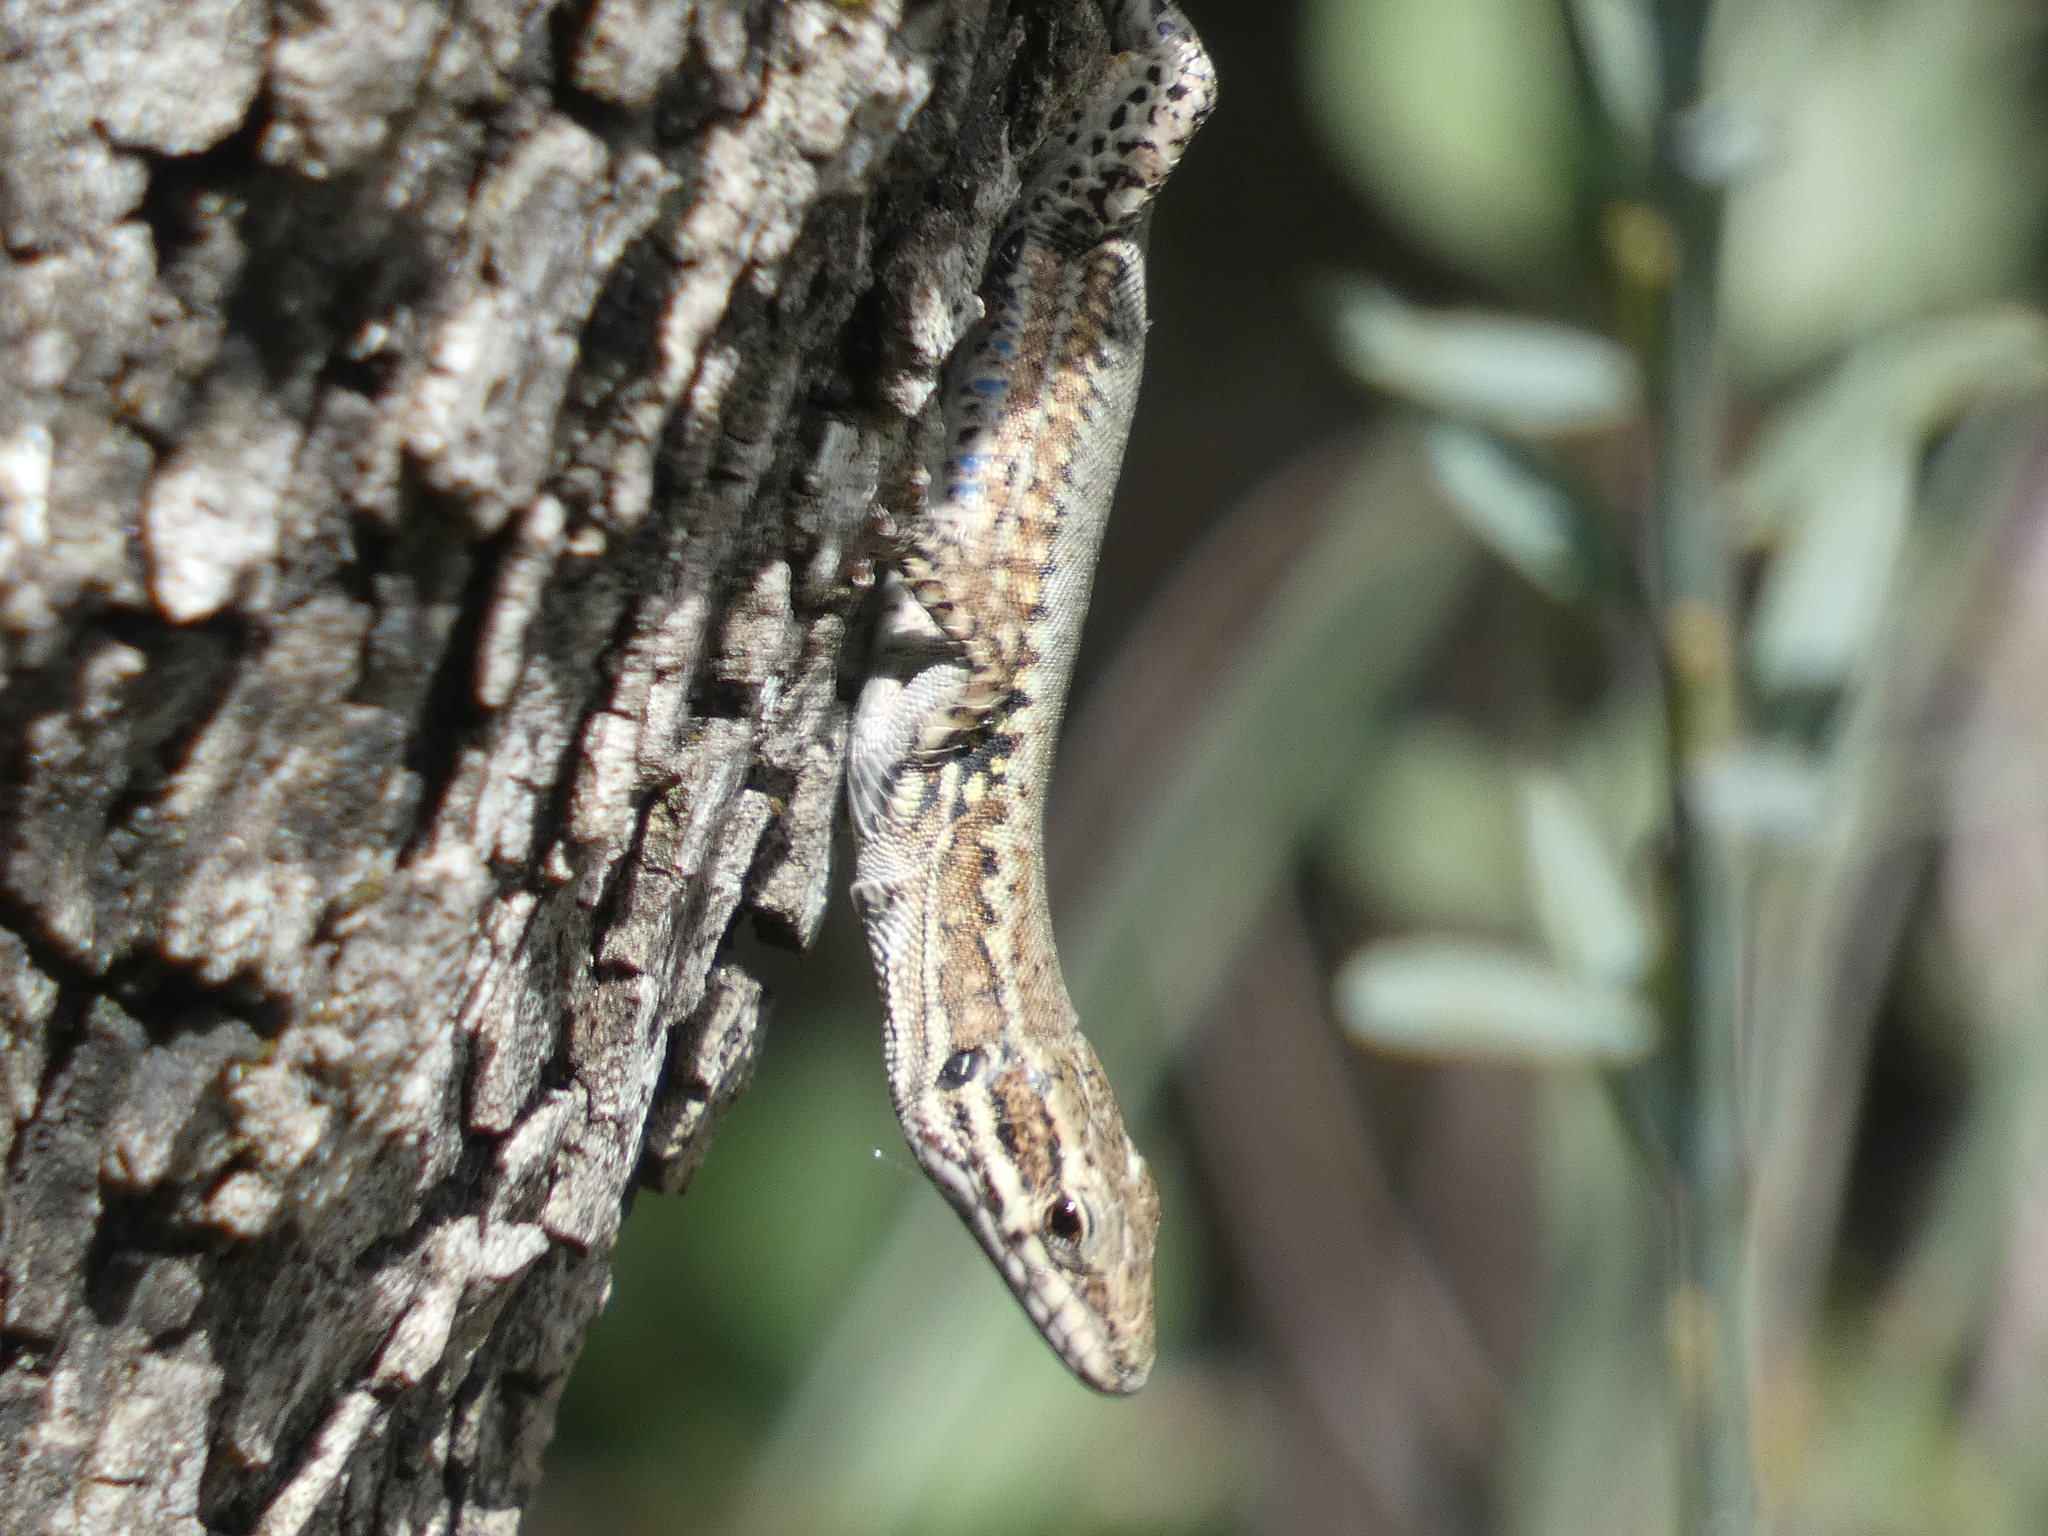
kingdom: Animalia
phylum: Chordata
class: Squamata
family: Lacertidae
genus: Podarcis
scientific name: Podarcis muralis
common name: Common wall lizard
